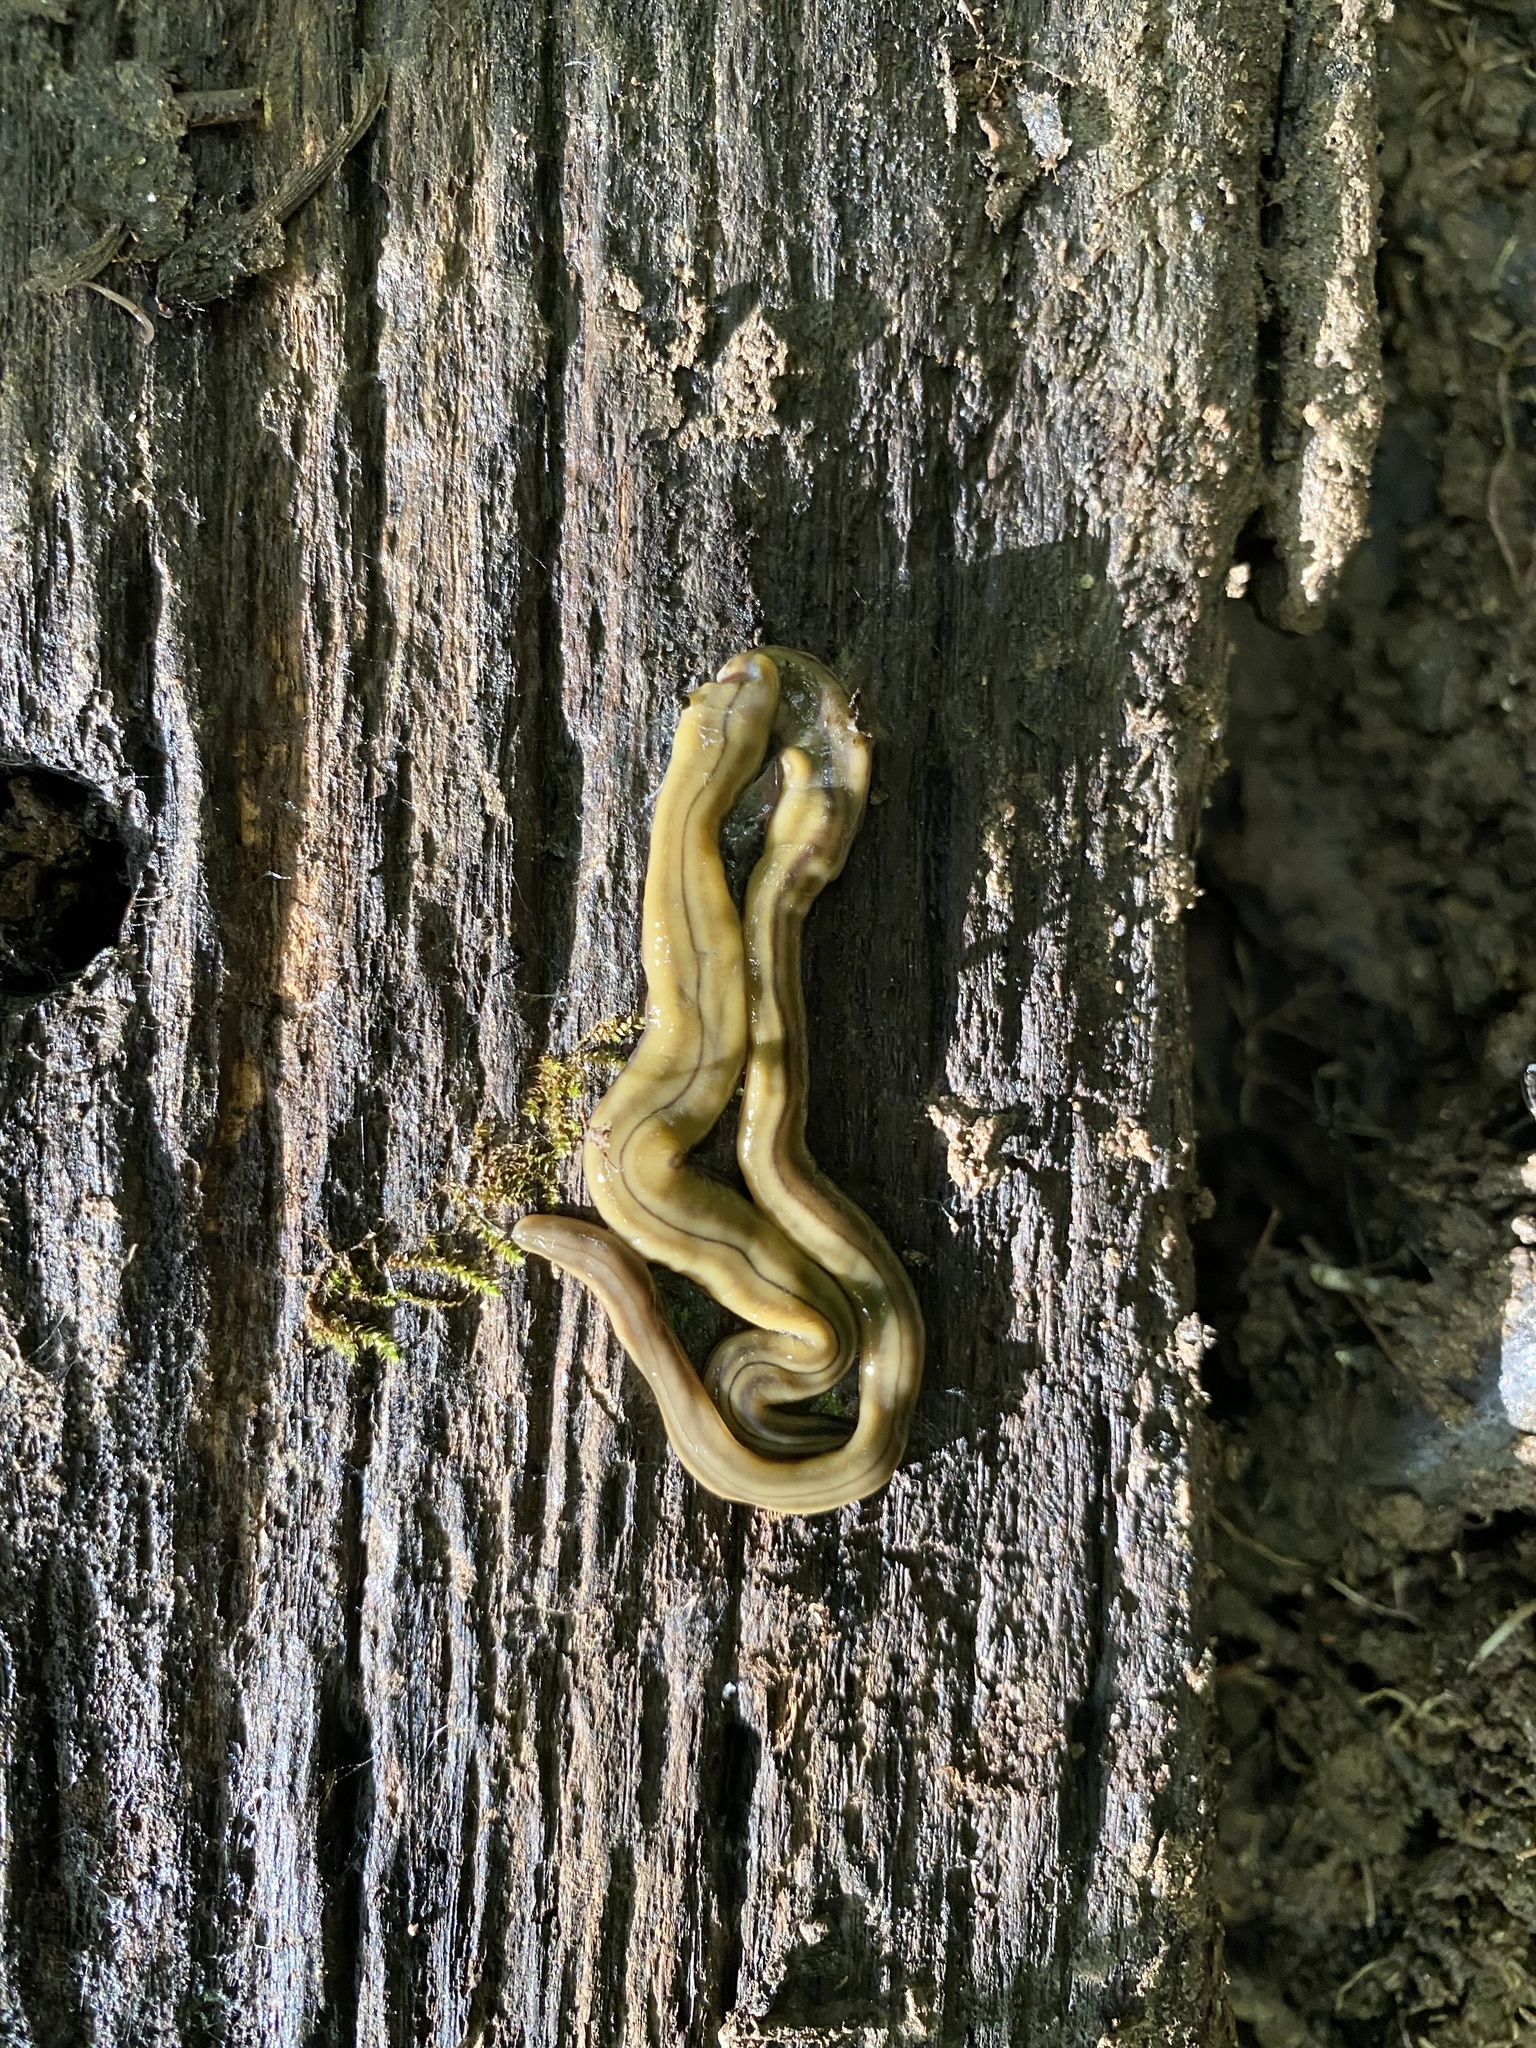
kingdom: Animalia
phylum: Platyhelminthes
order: Tricladida
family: Geoplanidae
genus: Bipalium
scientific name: Bipalium kewense
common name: Hammerhead flatworm
